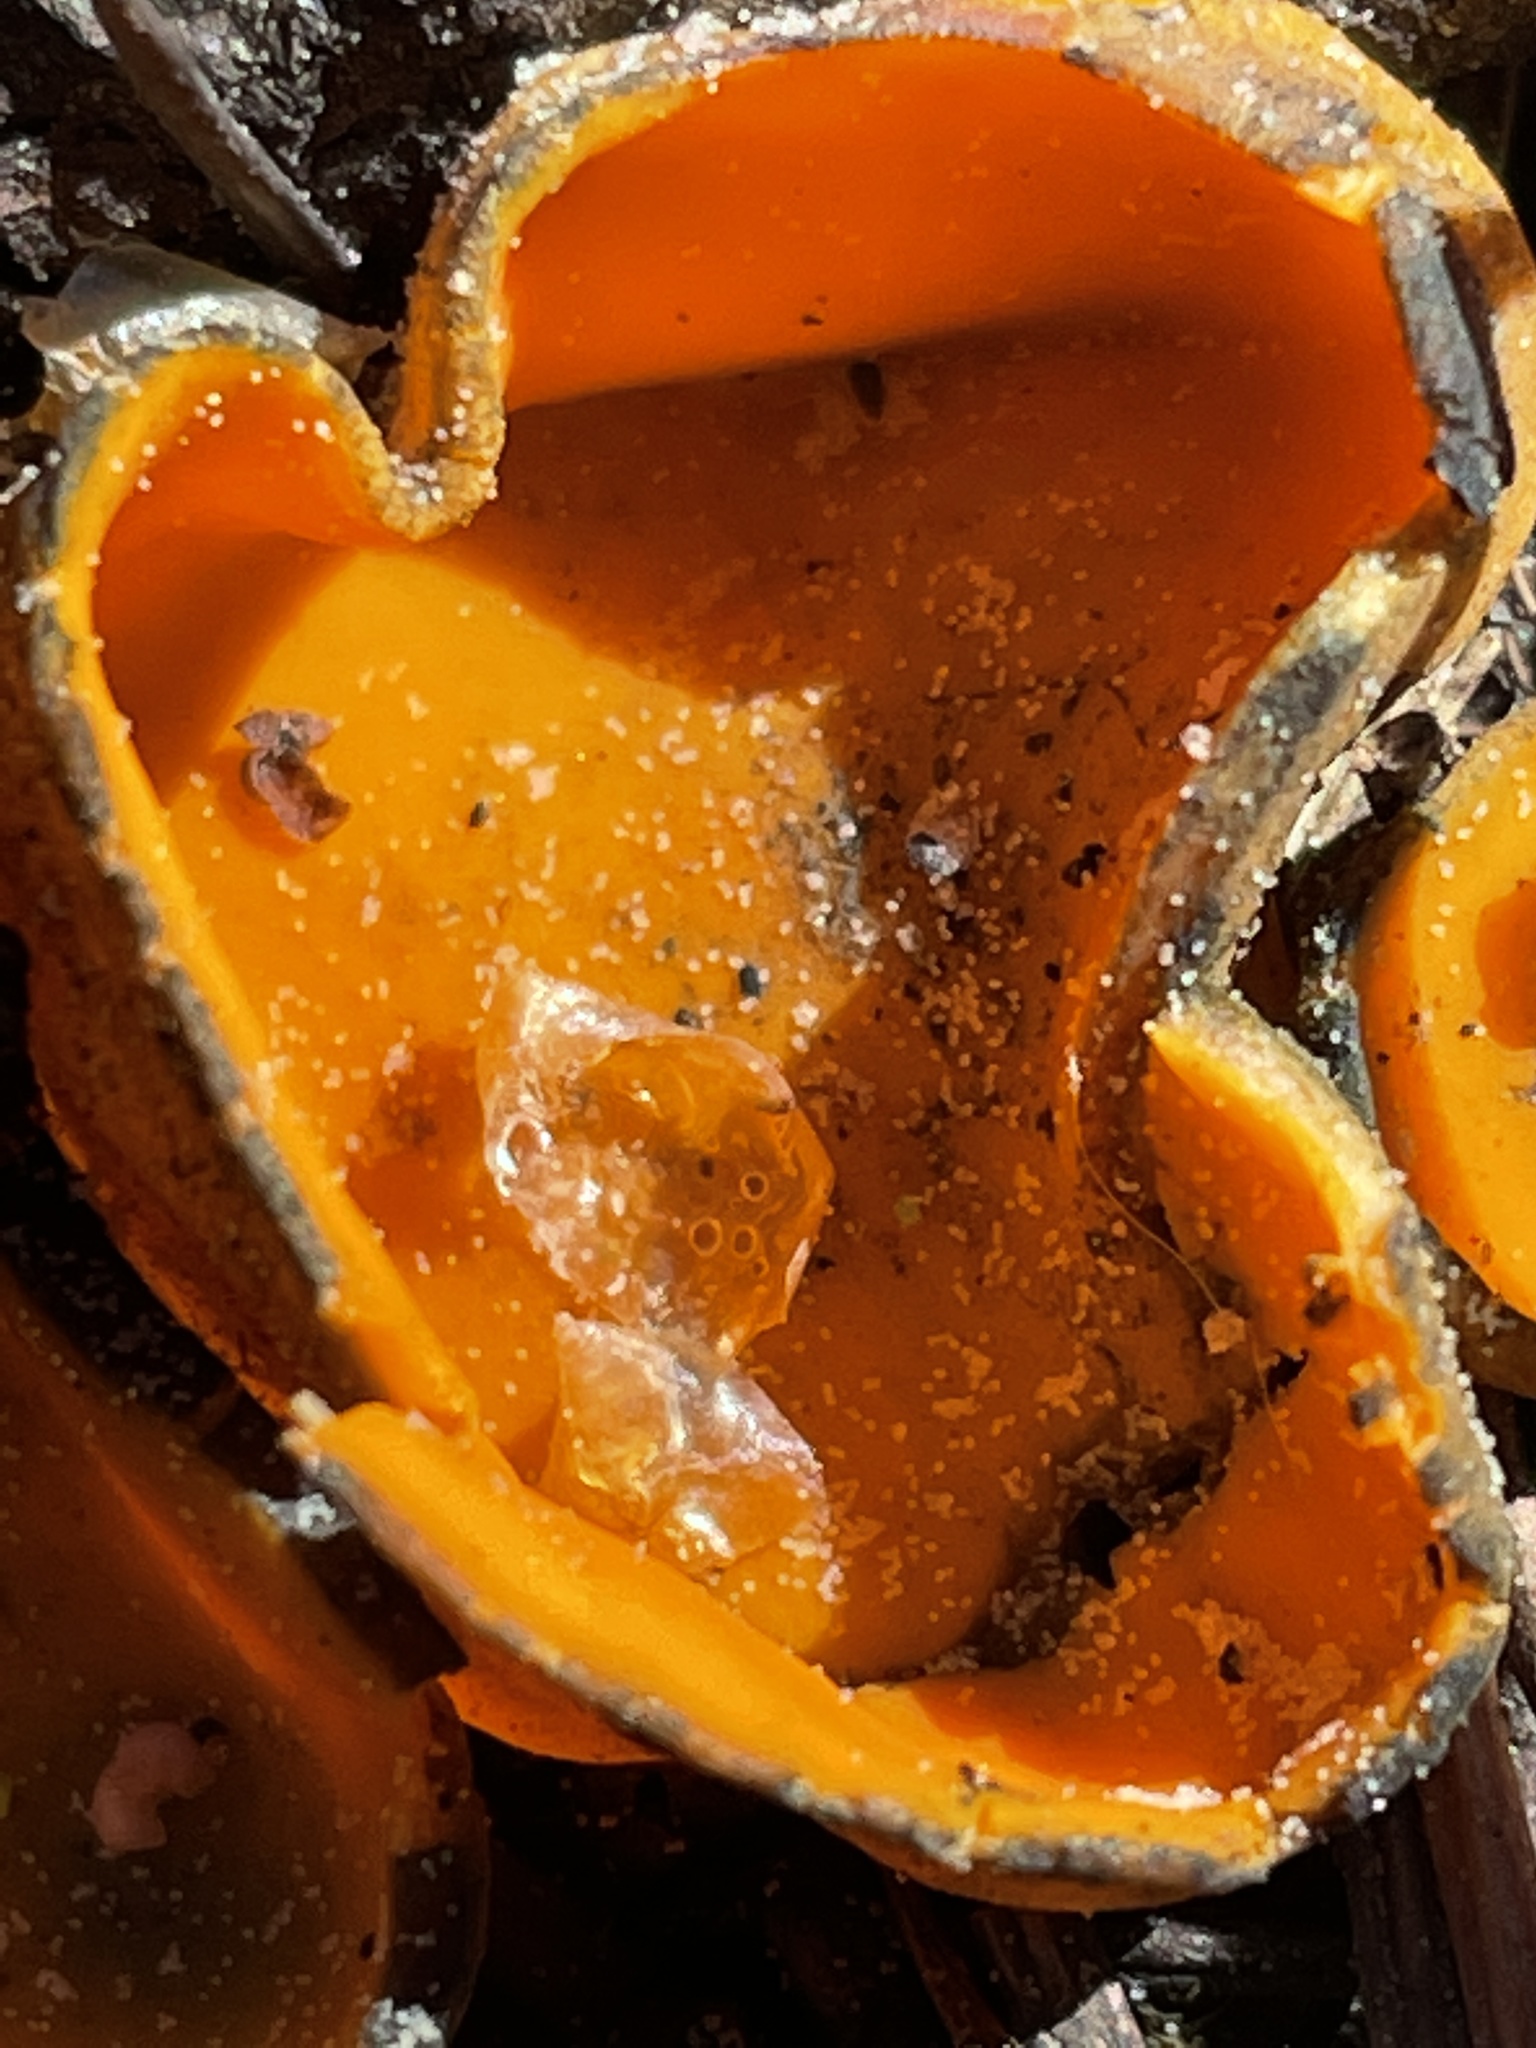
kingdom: Fungi
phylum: Ascomycota
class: Pezizomycetes
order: Pezizales
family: Caloscyphaceae
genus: Caloscypha
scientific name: Caloscypha fulgens
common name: Golden cup
